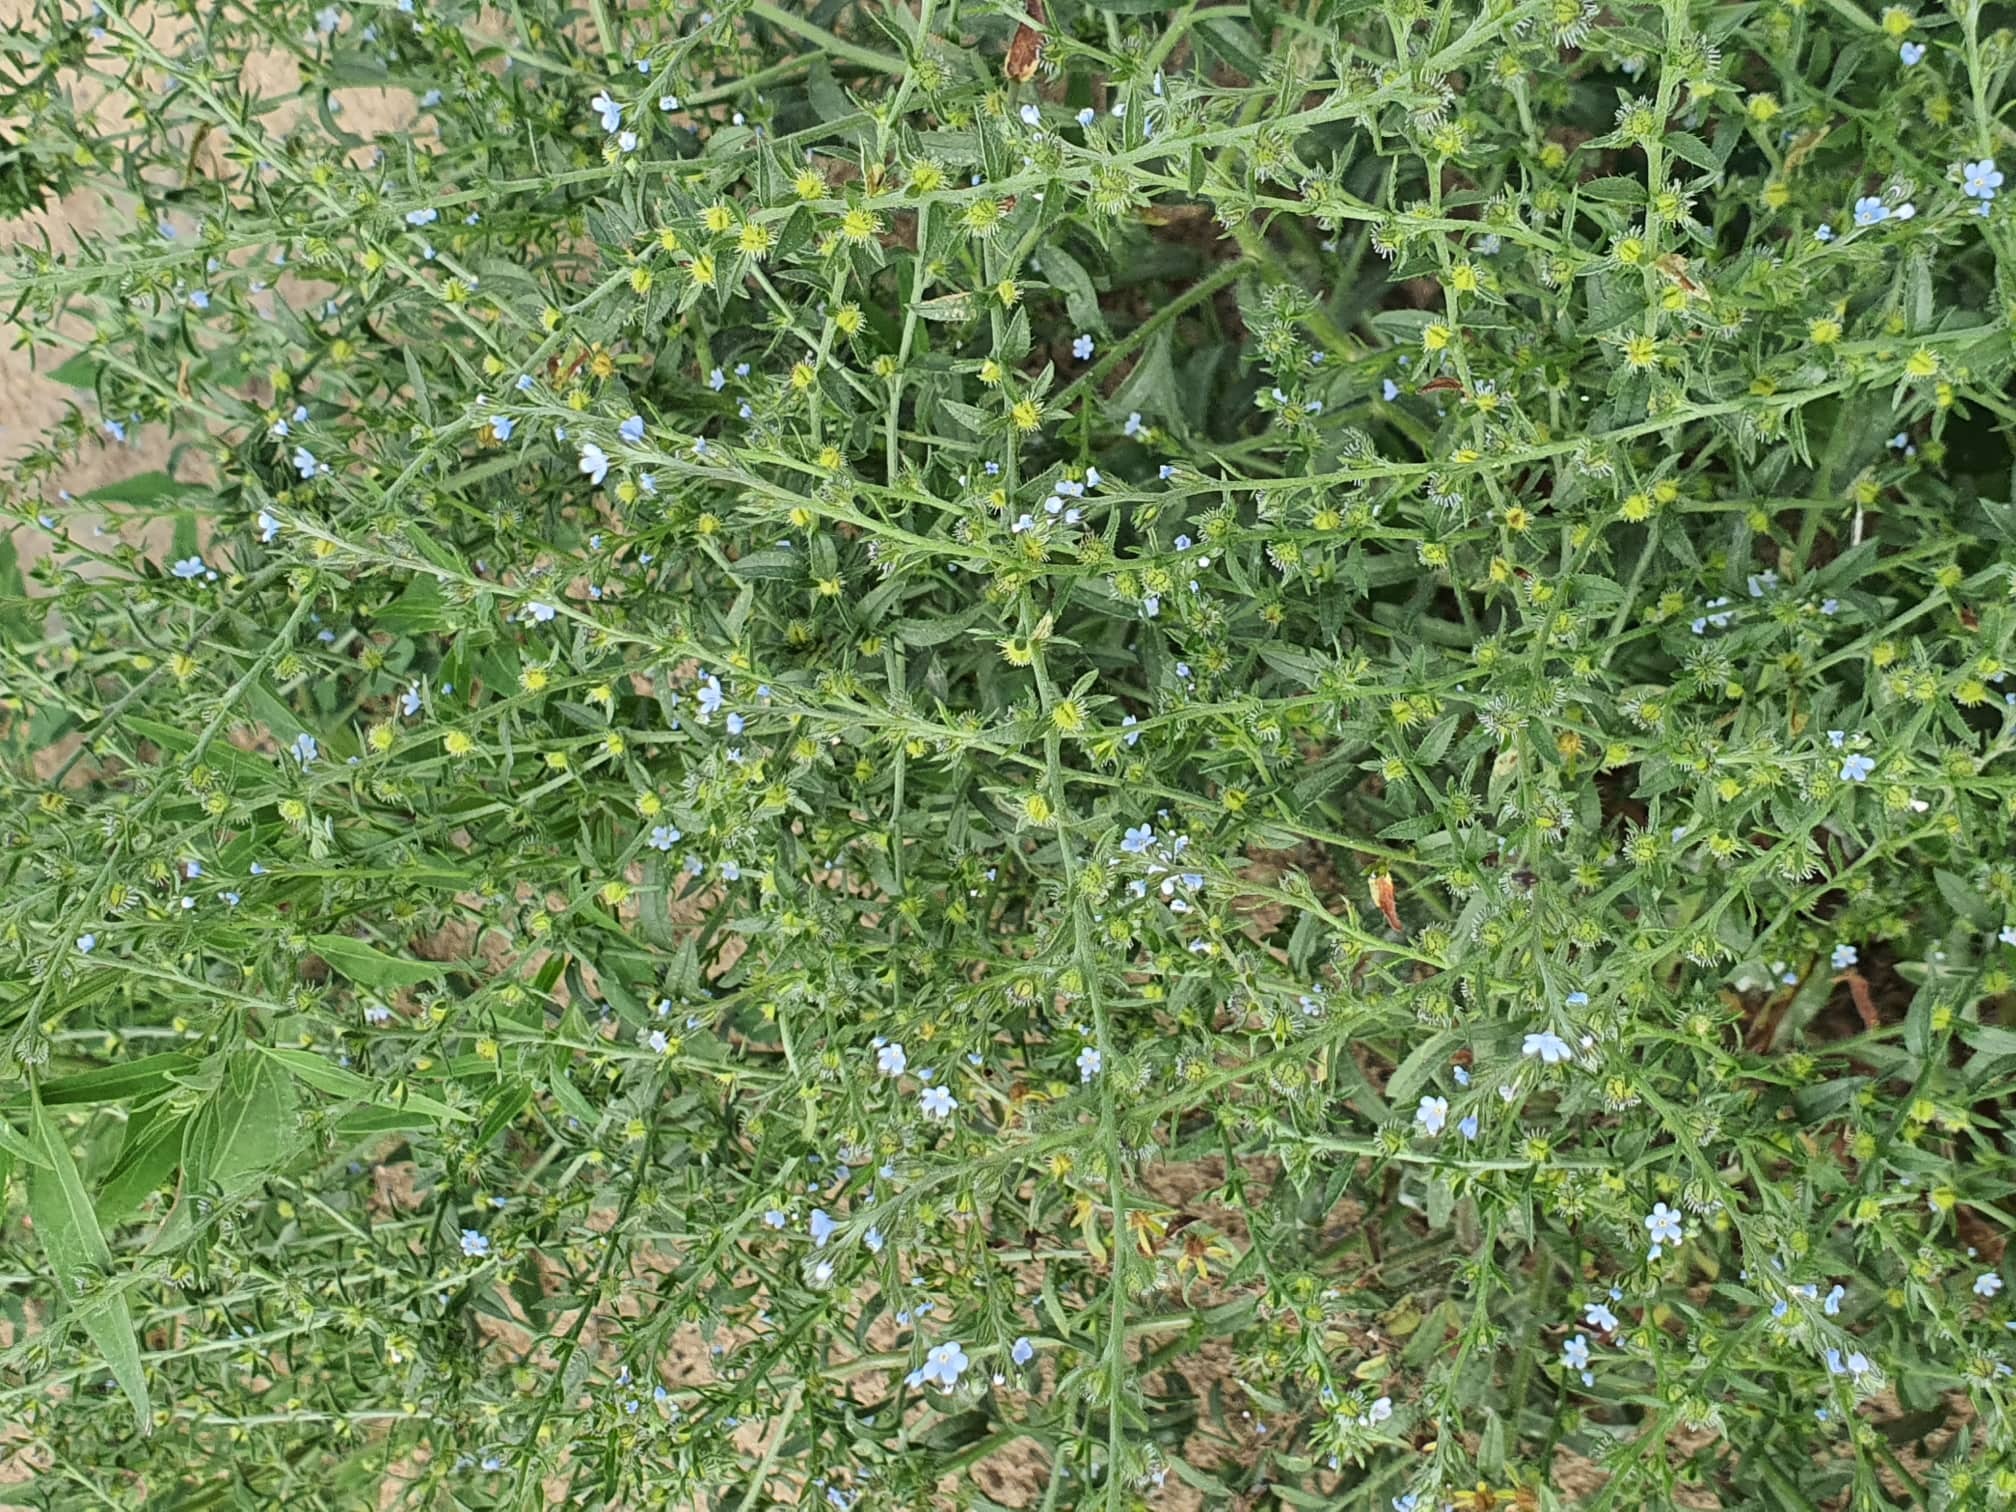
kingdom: Plantae
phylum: Tracheophyta
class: Magnoliopsida
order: Boraginales
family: Boraginaceae
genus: Lappula
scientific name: Lappula squarrosa
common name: European stickseed
